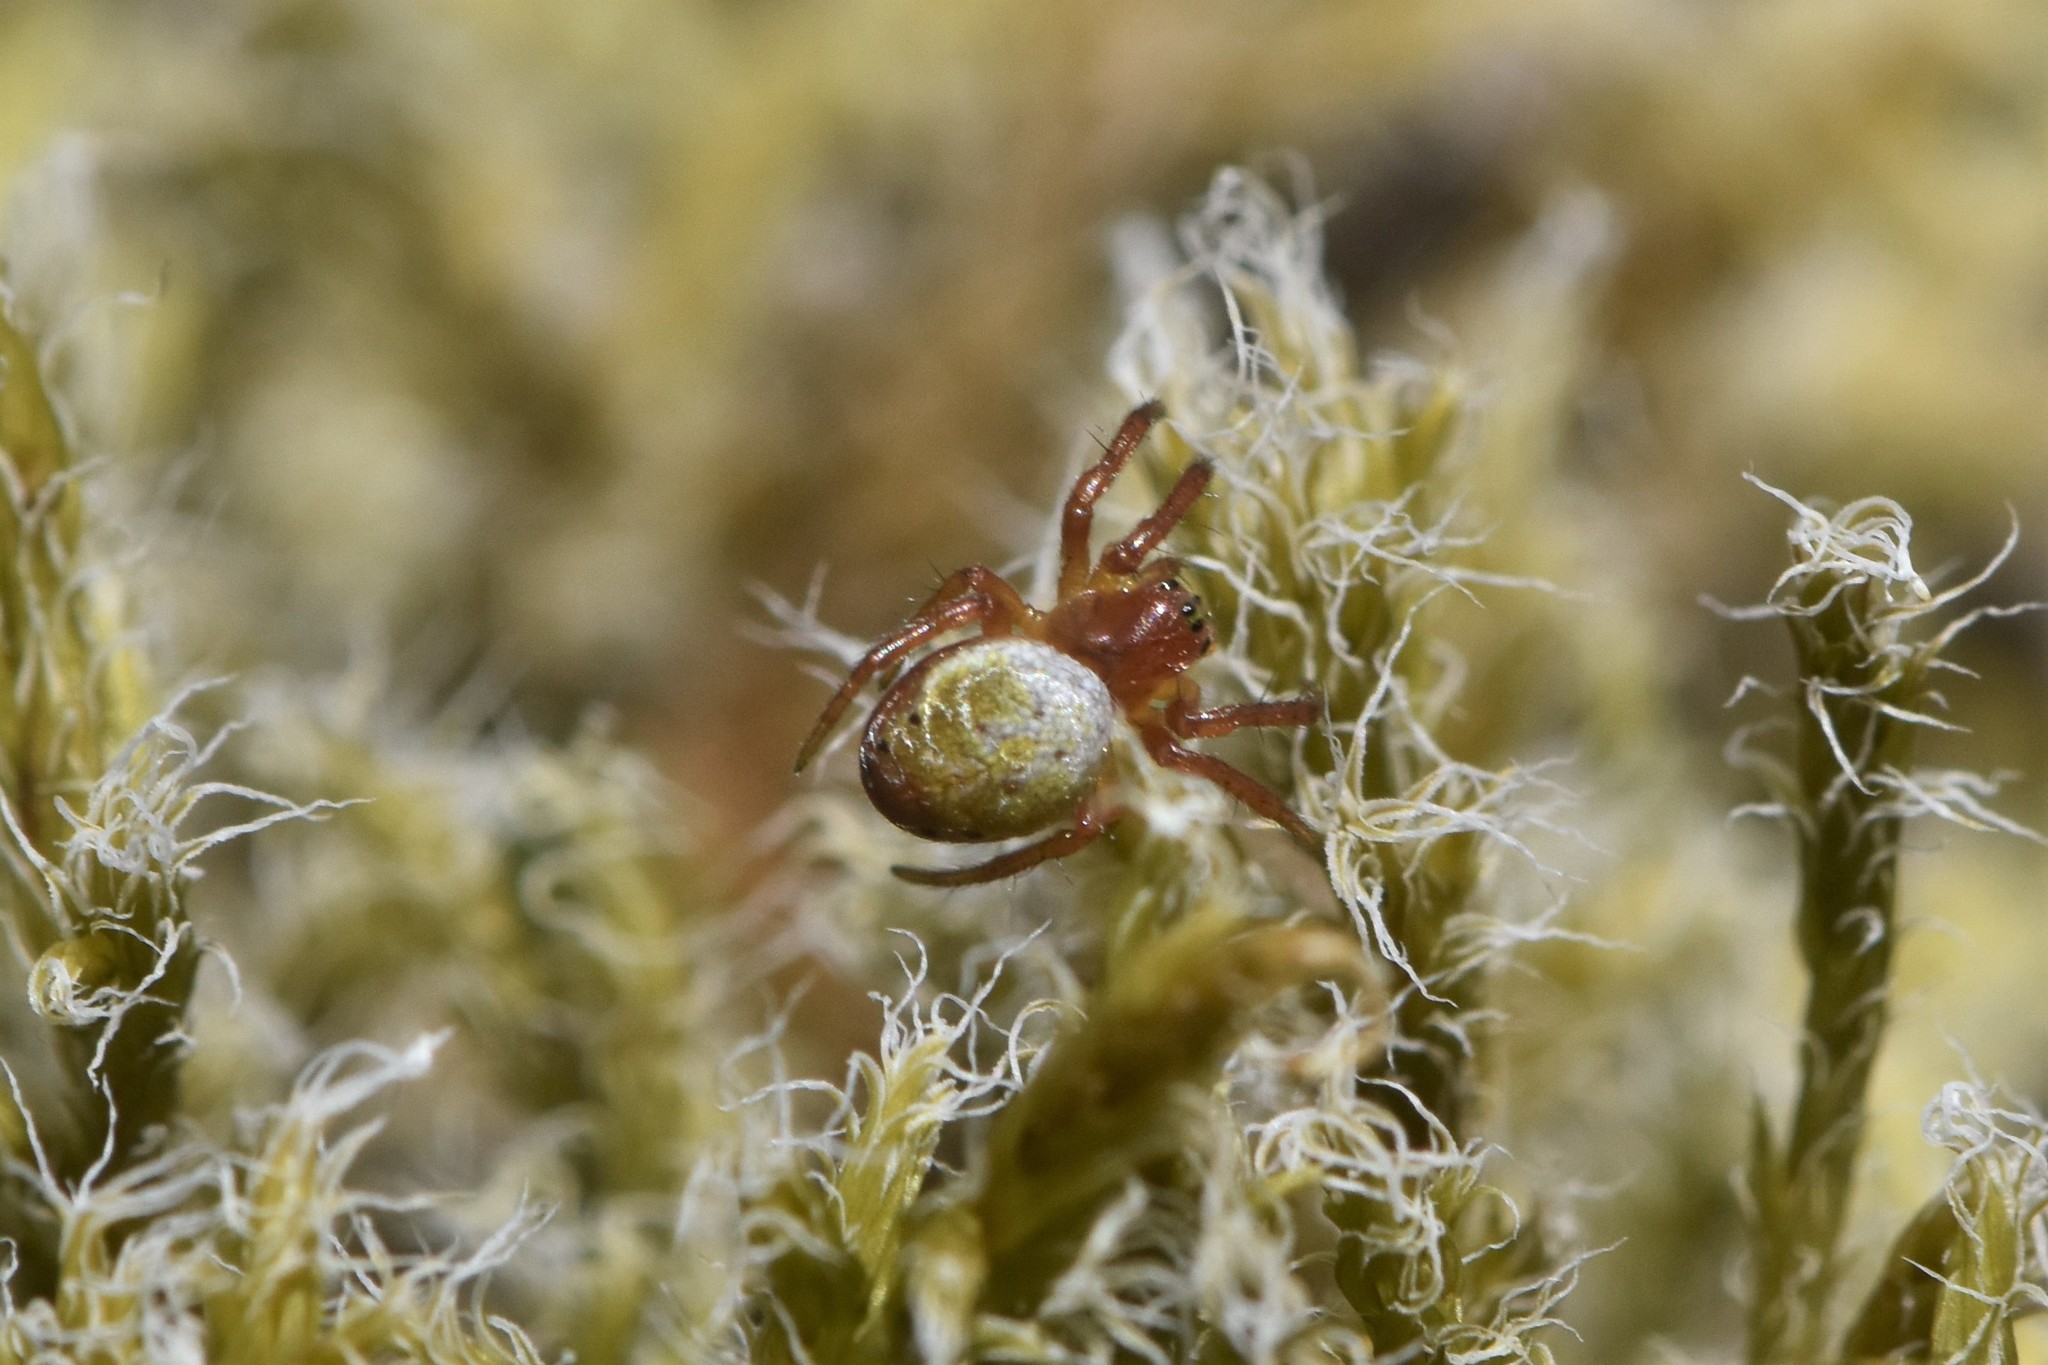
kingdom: Animalia
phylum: Arthropoda
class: Arachnida
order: Araneae
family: Araneidae
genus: Araniella
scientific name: Araniella displicata
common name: Sixspotted orb weaver
